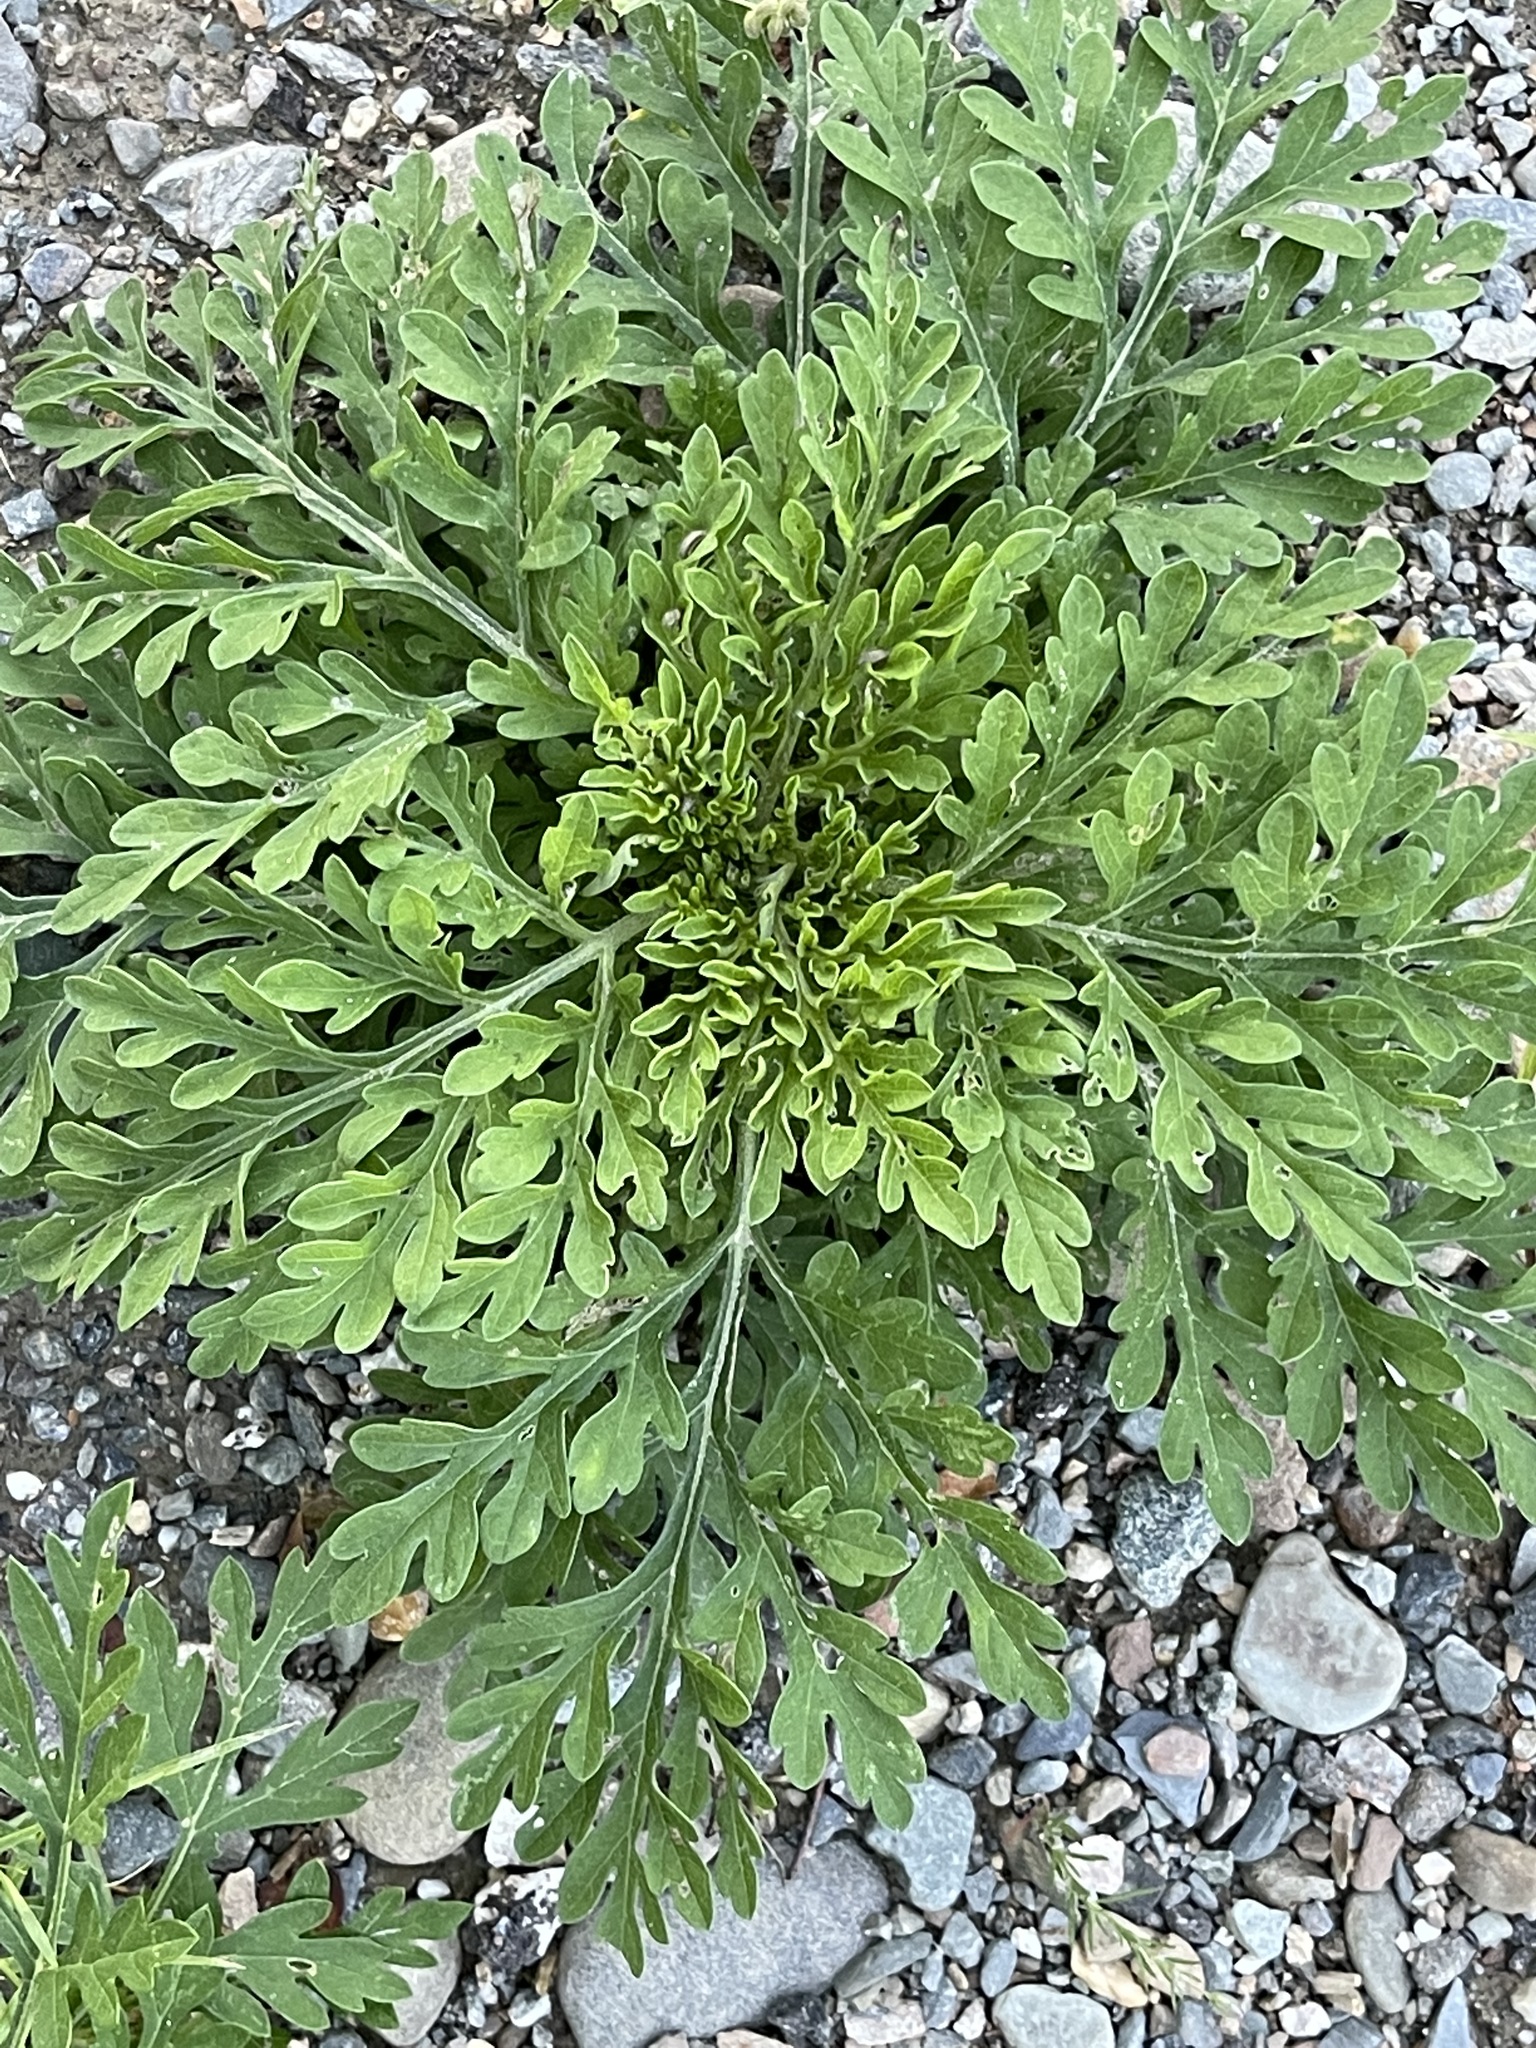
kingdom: Plantae
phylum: Tracheophyta
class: Magnoliopsida
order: Asterales
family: Asteraceae
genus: Ambrosia
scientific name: Ambrosia artemisiifolia
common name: Annual ragweed
